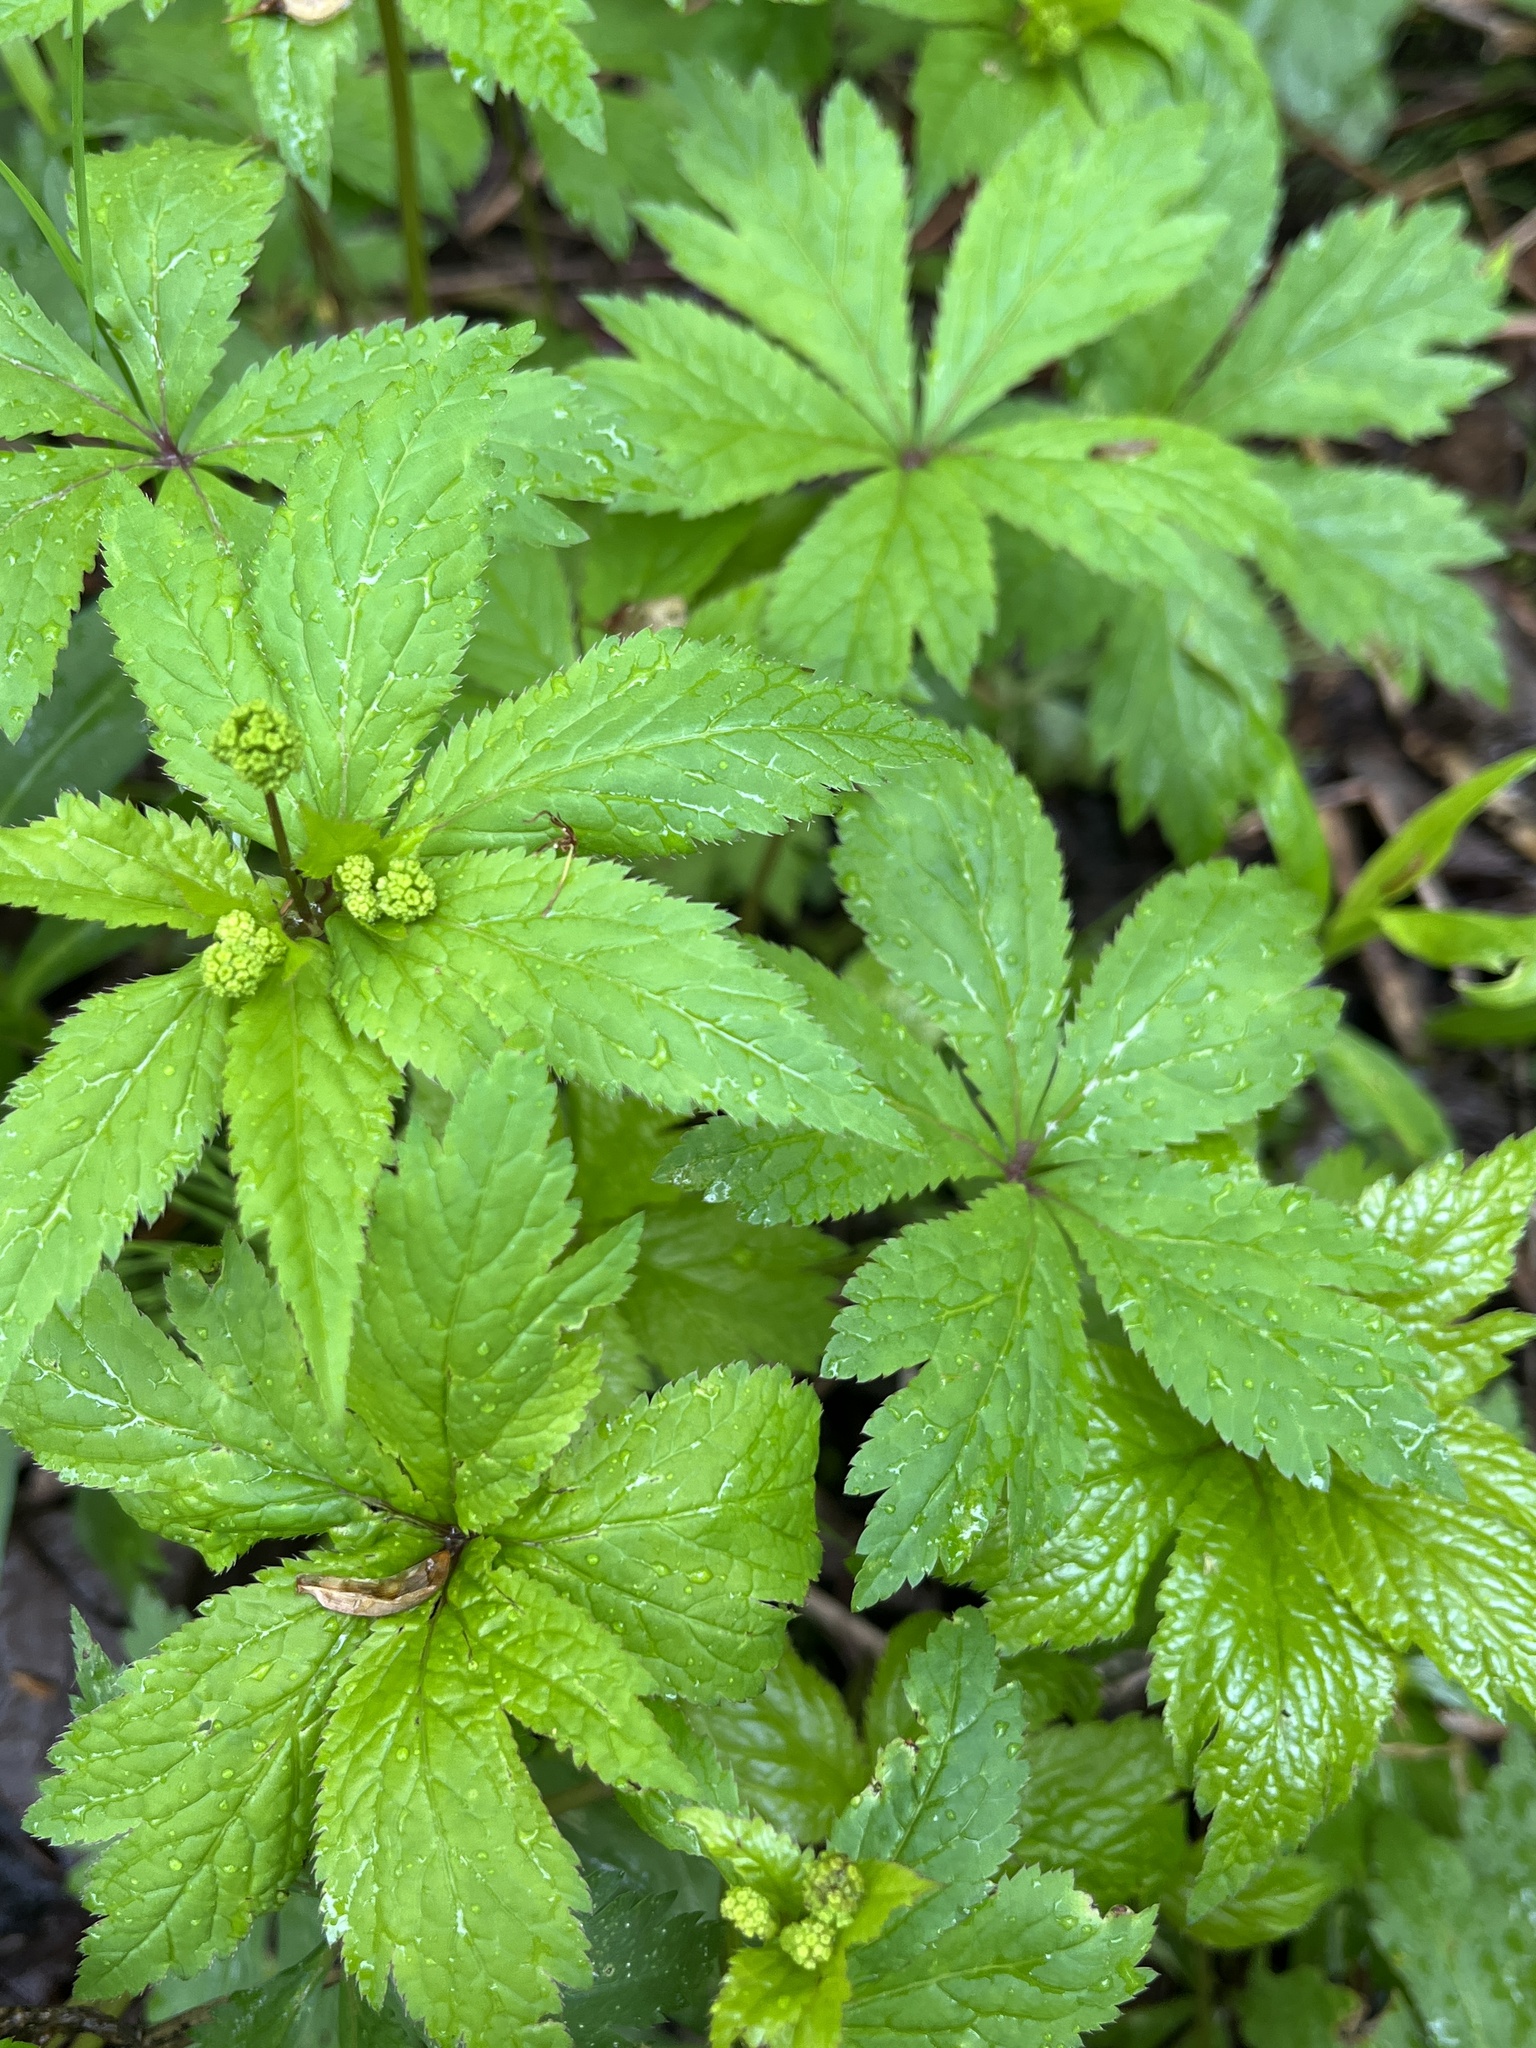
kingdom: Plantae
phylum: Tracheophyta
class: Magnoliopsida
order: Apiales
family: Apiaceae
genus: Sanicula
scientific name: Sanicula odorata
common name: Cluster sanicle
